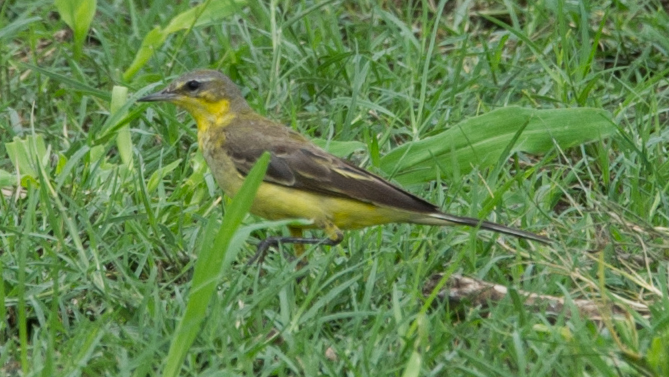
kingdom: Animalia
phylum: Chordata
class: Aves
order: Passeriformes
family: Motacillidae
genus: Motacilla
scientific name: Motacilla flava
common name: Western yellow wagtail
